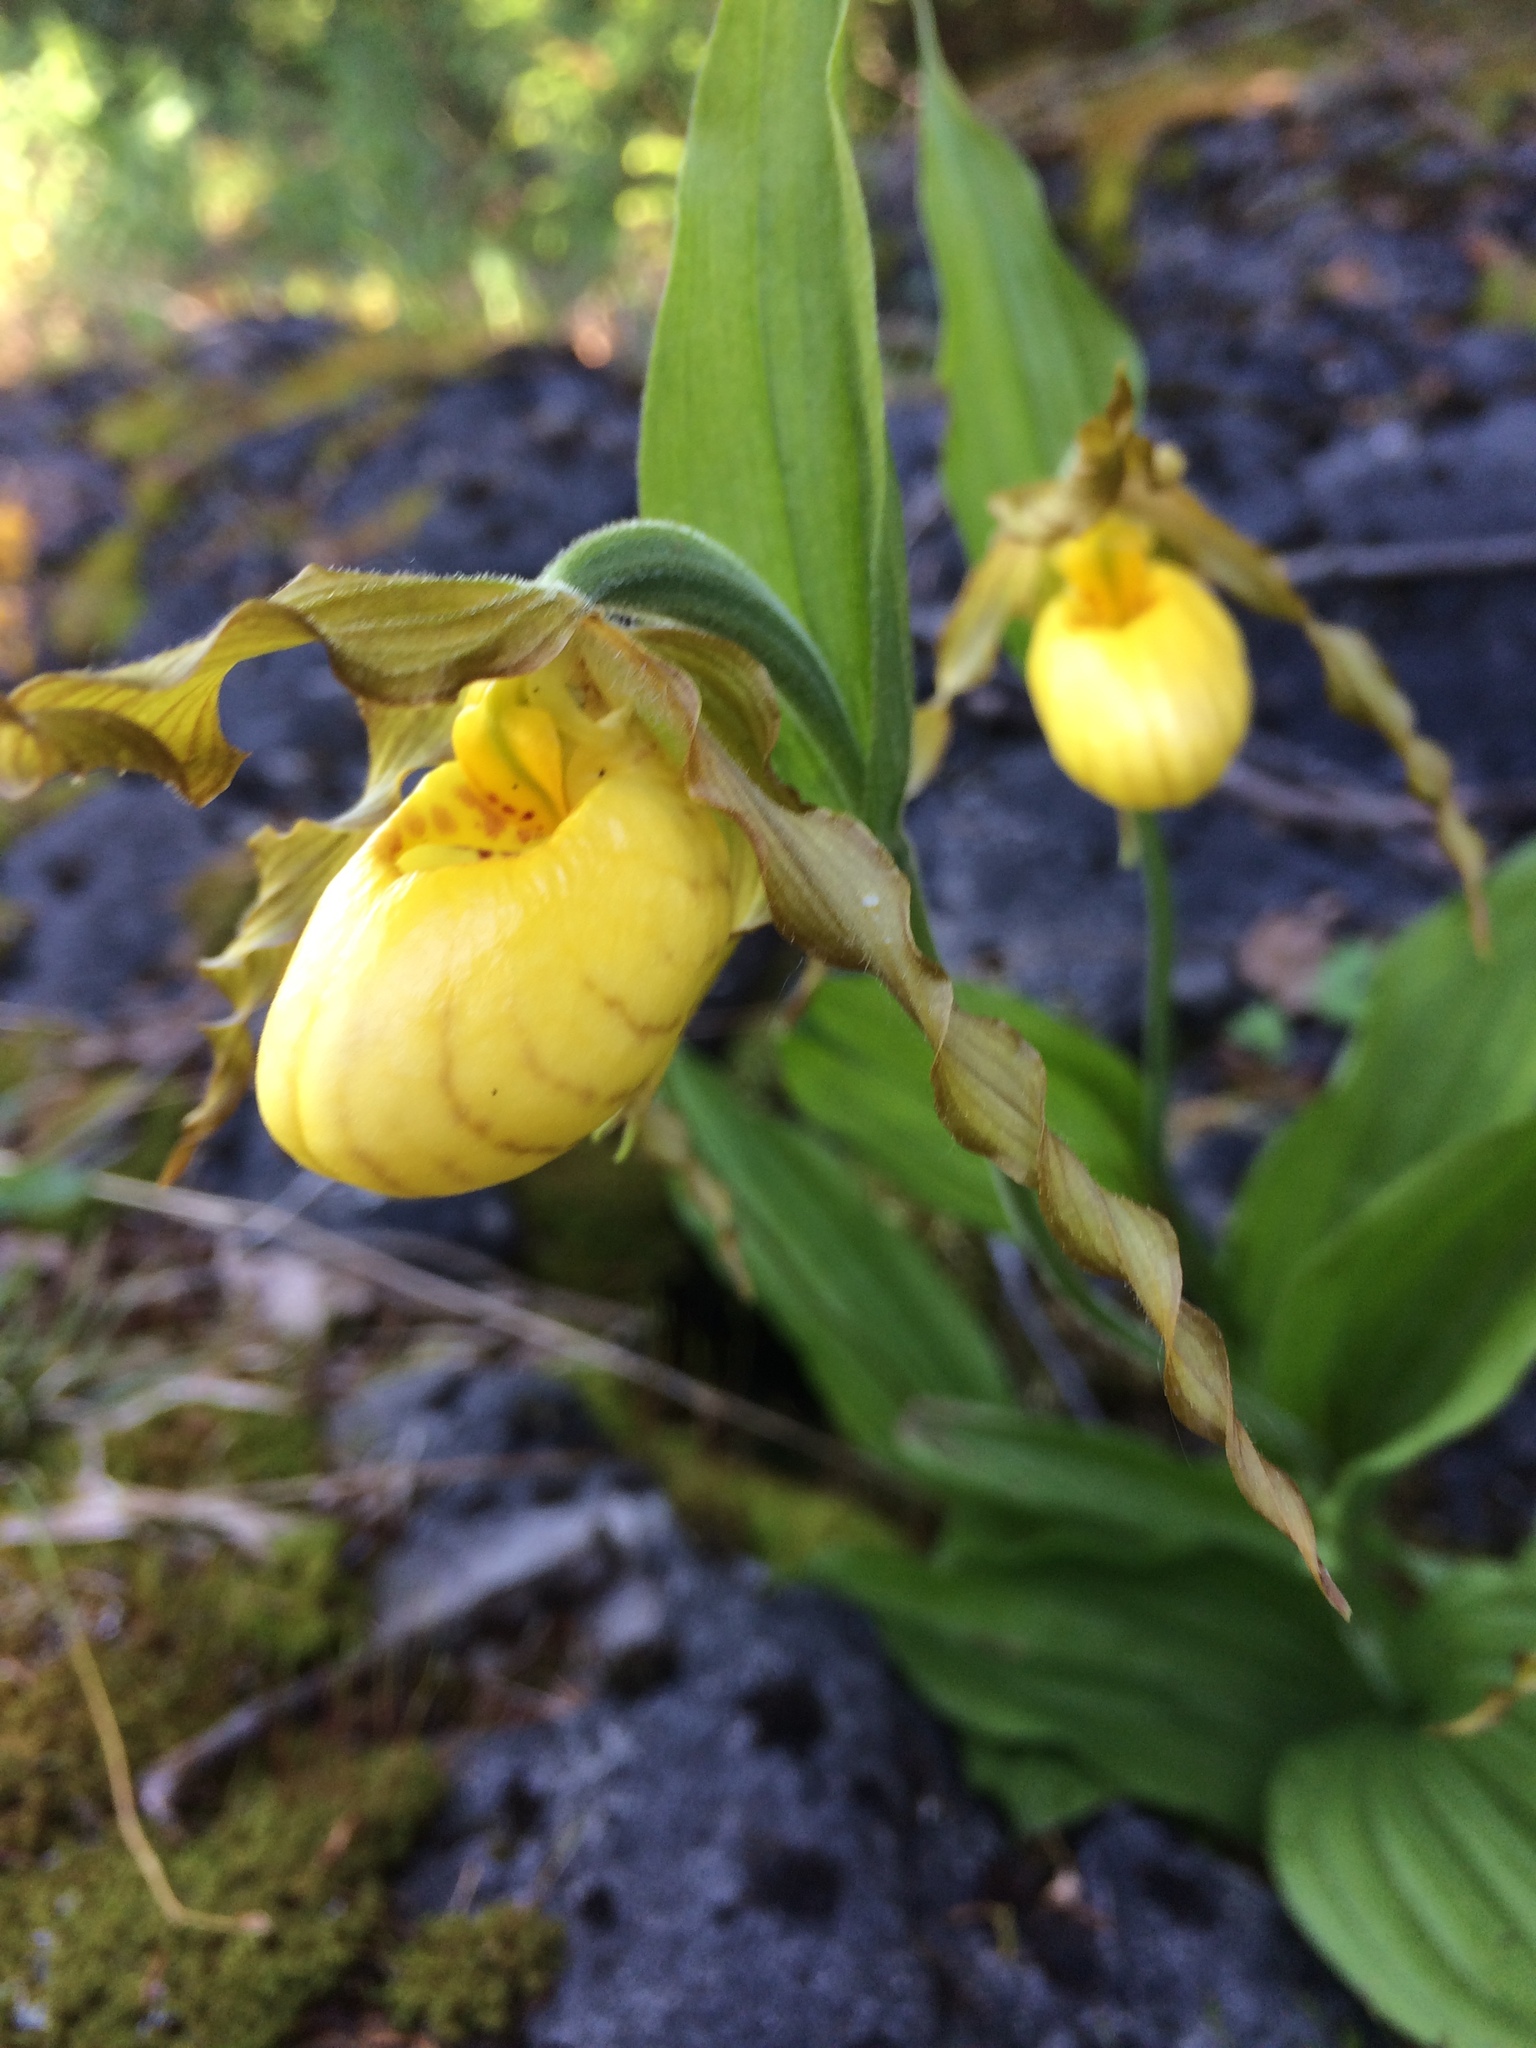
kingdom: Plantae
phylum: Tracheophyta
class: Liliopsida
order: Asparagales
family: Orchidaceae
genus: Cypripedium
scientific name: Cypripedium parviflorum
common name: American yellow lady's-slipper
